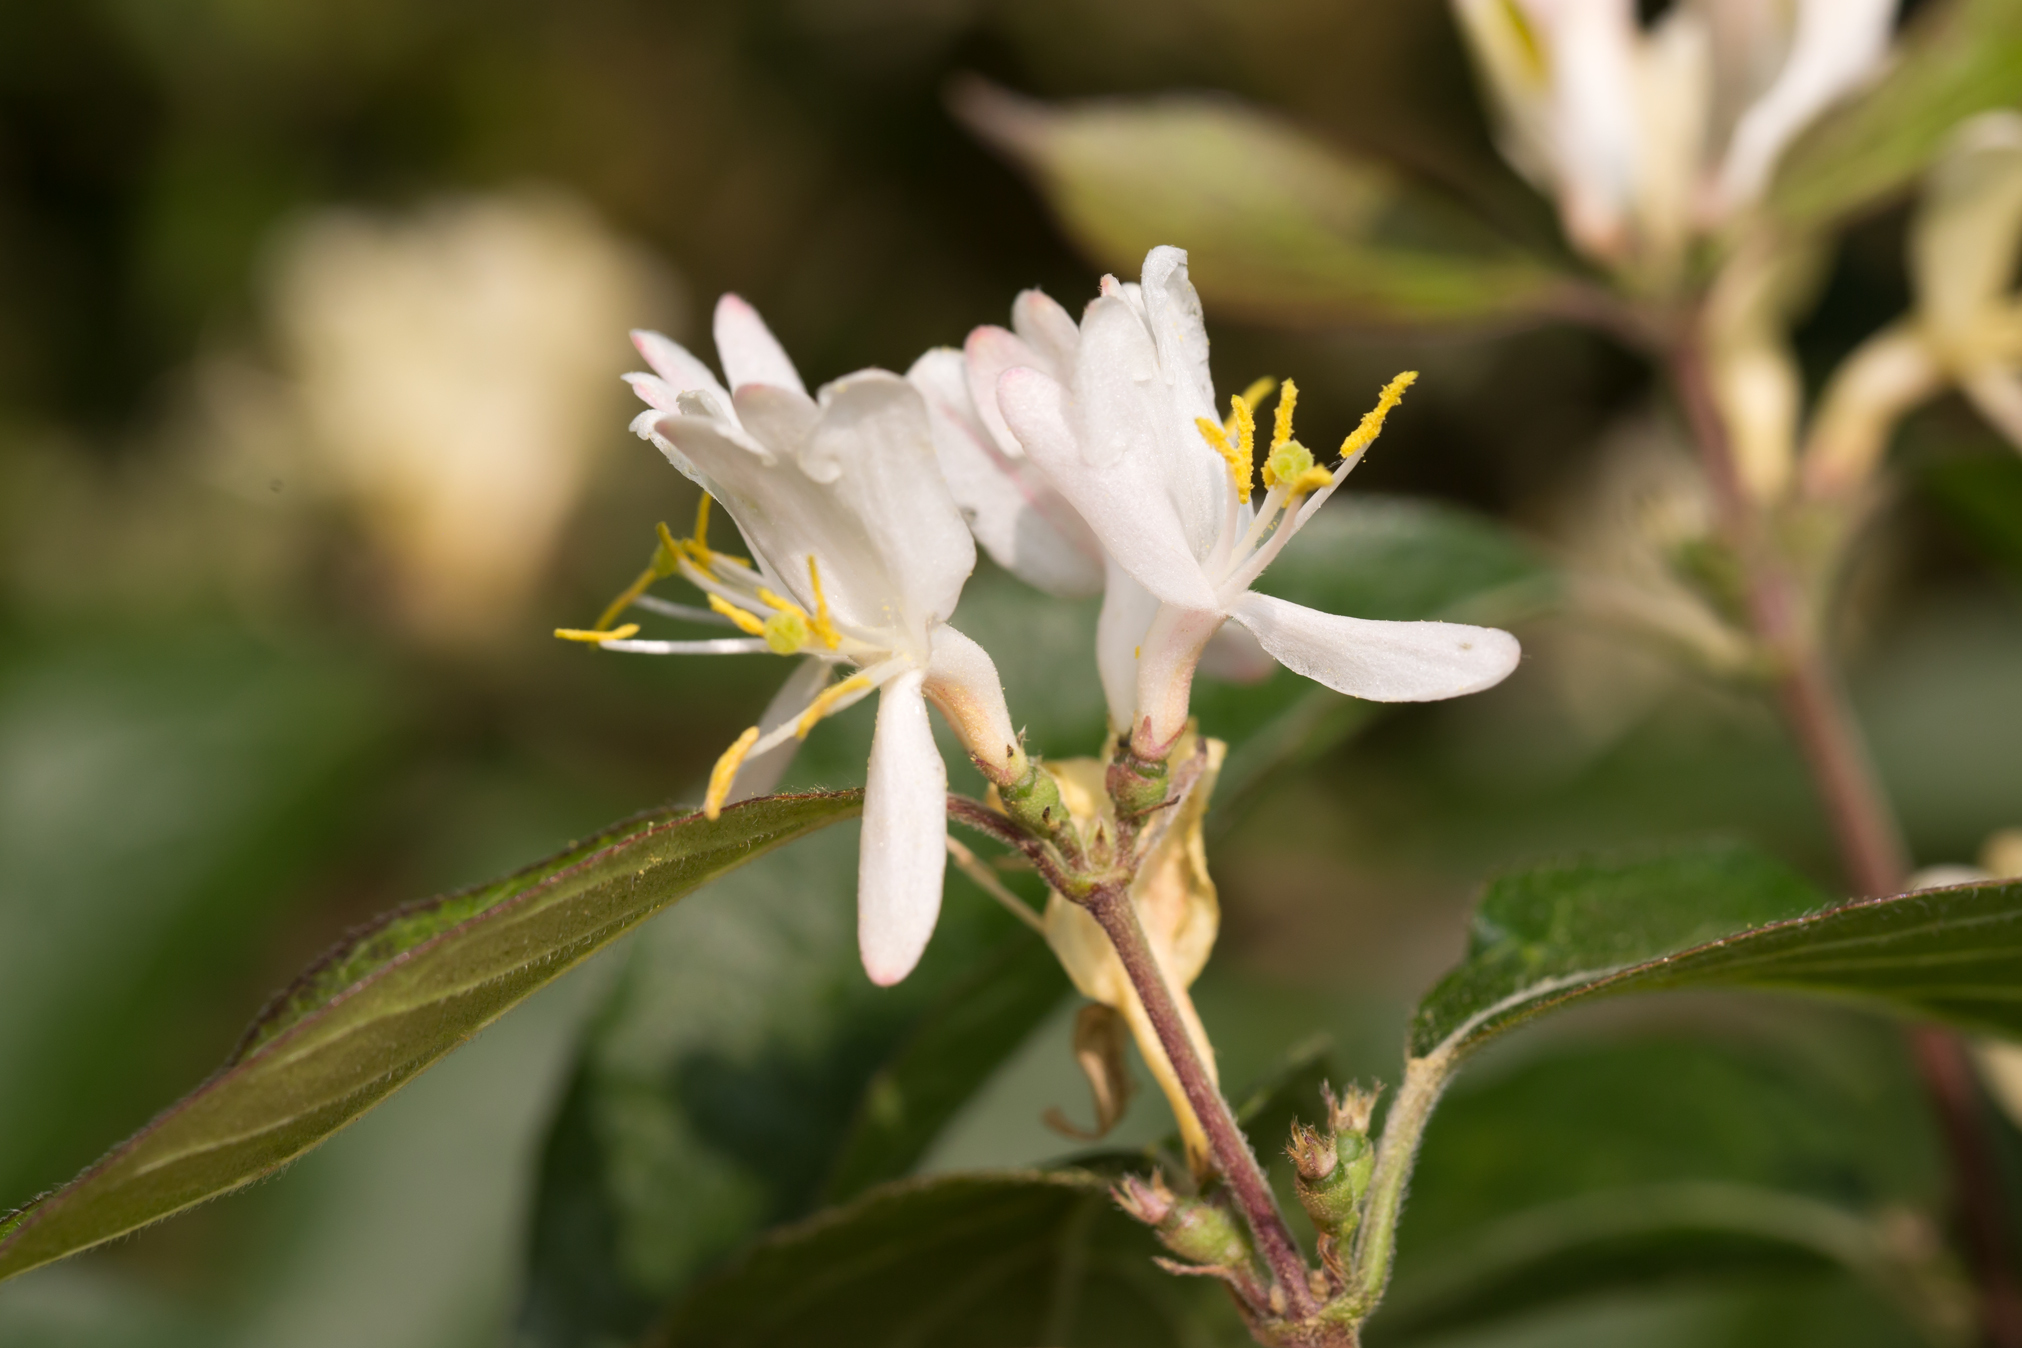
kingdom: Plantae
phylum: Tracheophyta
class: Magnoliopsida
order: Dipsacales
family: Caprifoliaceae
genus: Lonicera
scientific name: Lonicera maackii
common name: Amur honeysuckle
